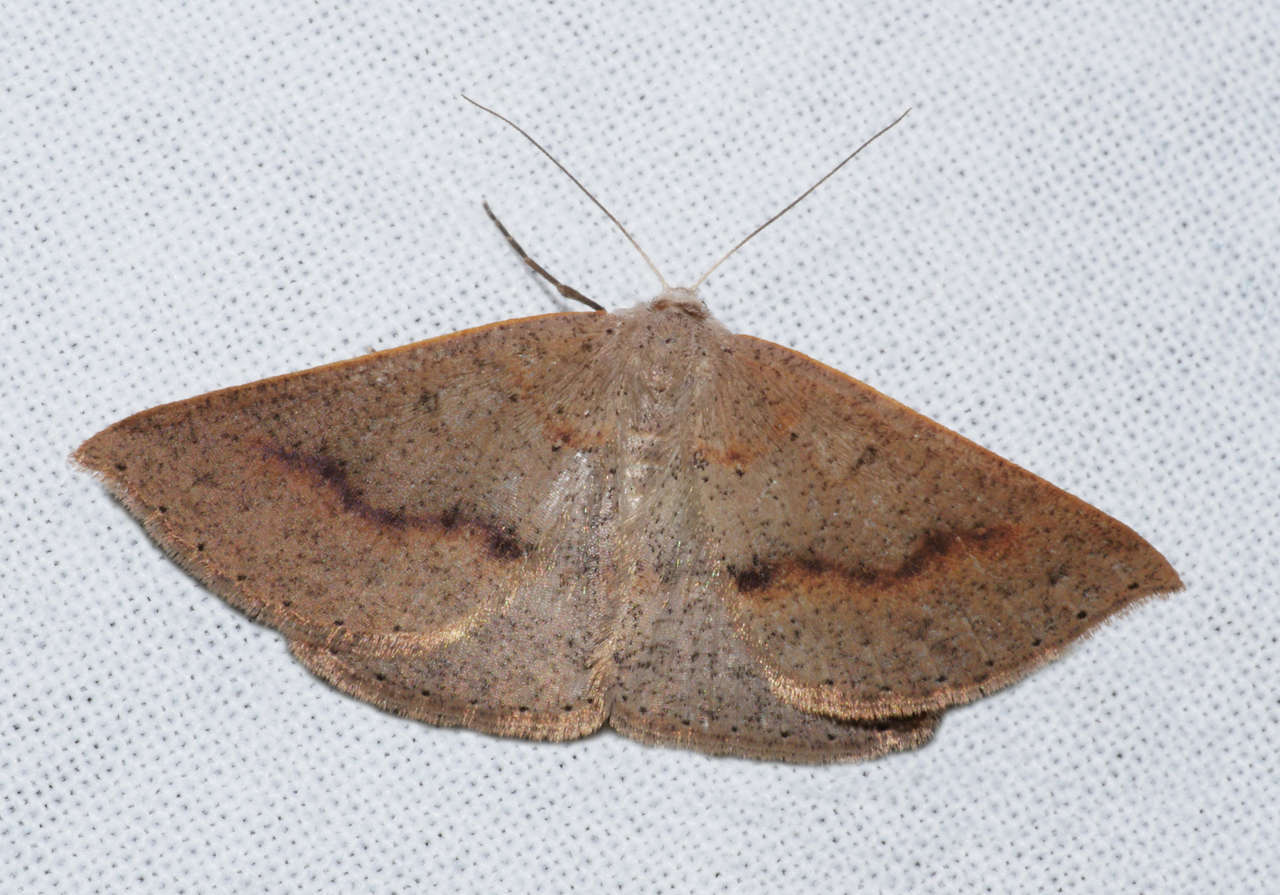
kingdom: Animalia
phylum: Arthropoda
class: Insecta
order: Lepidoptera
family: Geometridae
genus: Nearcha
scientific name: Nearcha ursaria
